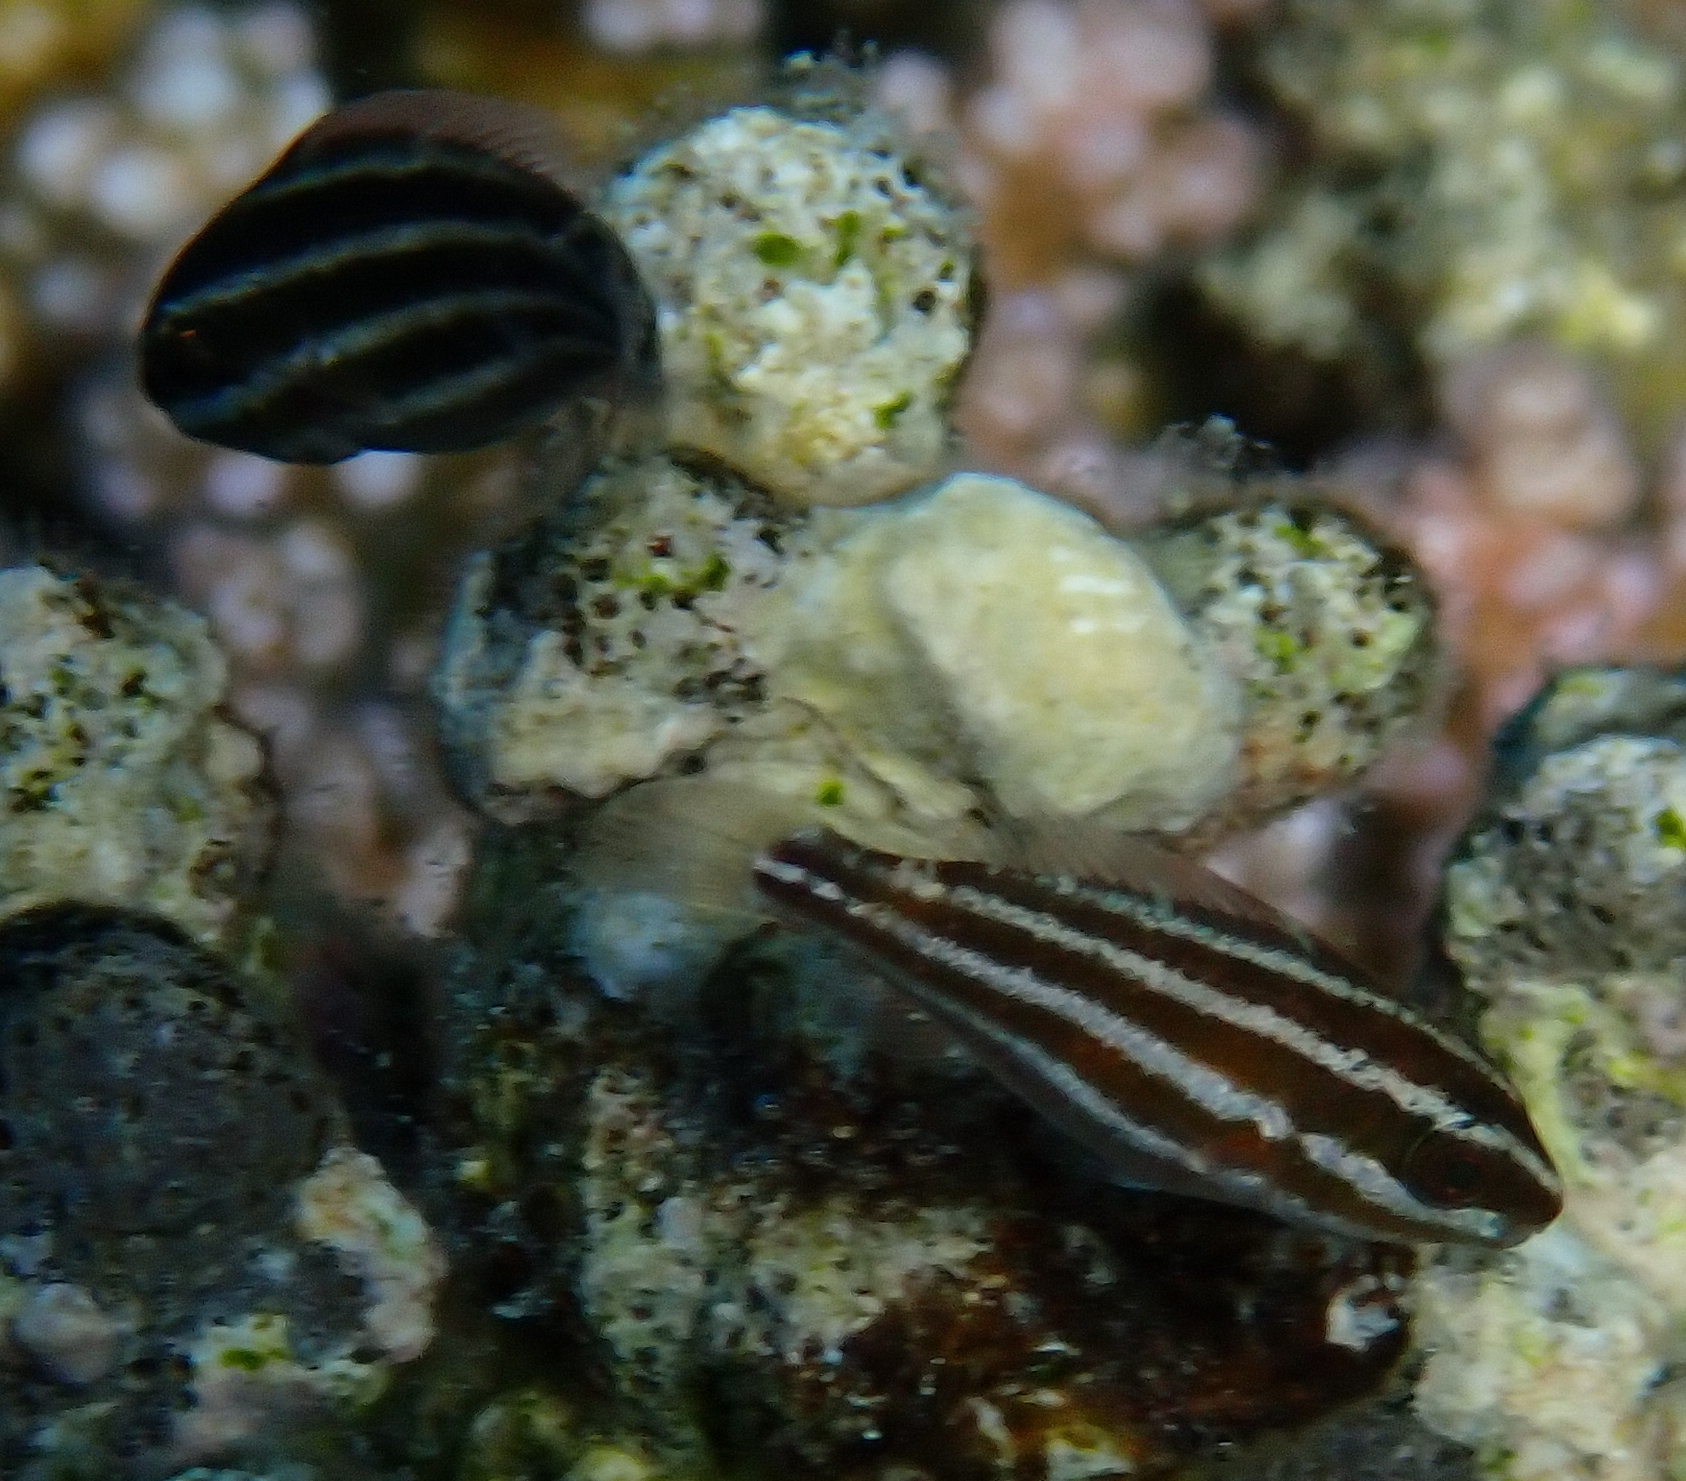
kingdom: Animalia
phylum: Chordata
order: Perciformes
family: Scaridae
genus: Chlorurus
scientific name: Chlorurus sordidus
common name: Bullethead parrotfish
